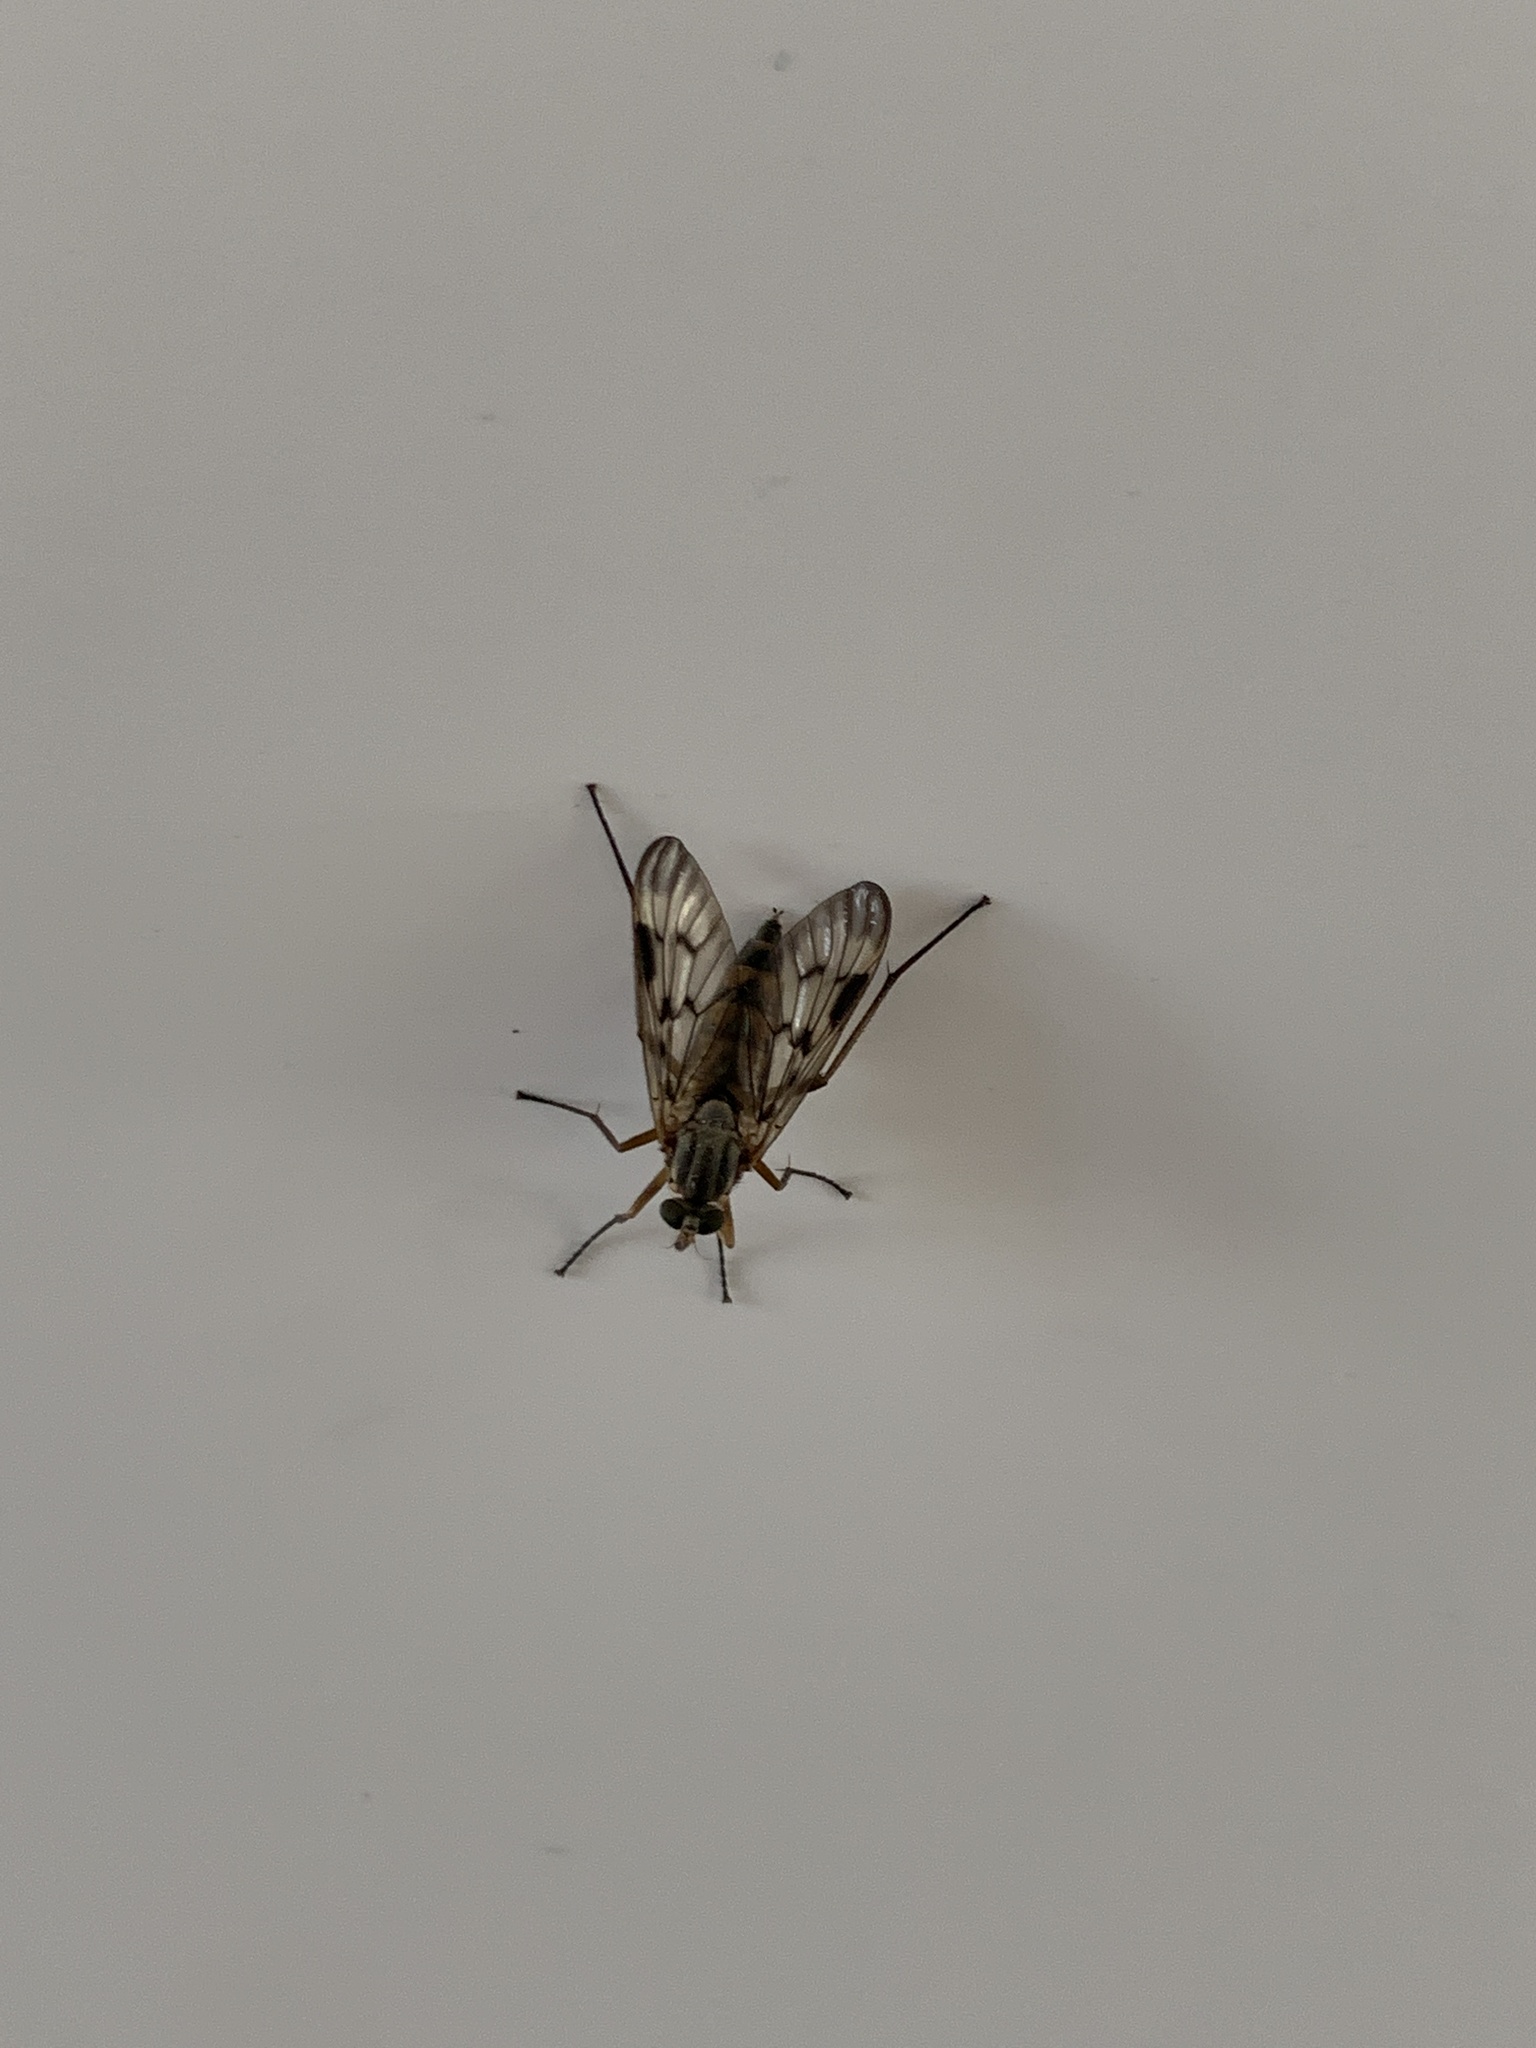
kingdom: Animalia
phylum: Arthropoda
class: Insecta
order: Diptera
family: Rhagionidae
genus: Rhagio
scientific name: Rhagio scolopacea
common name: Downlooker snipefly
